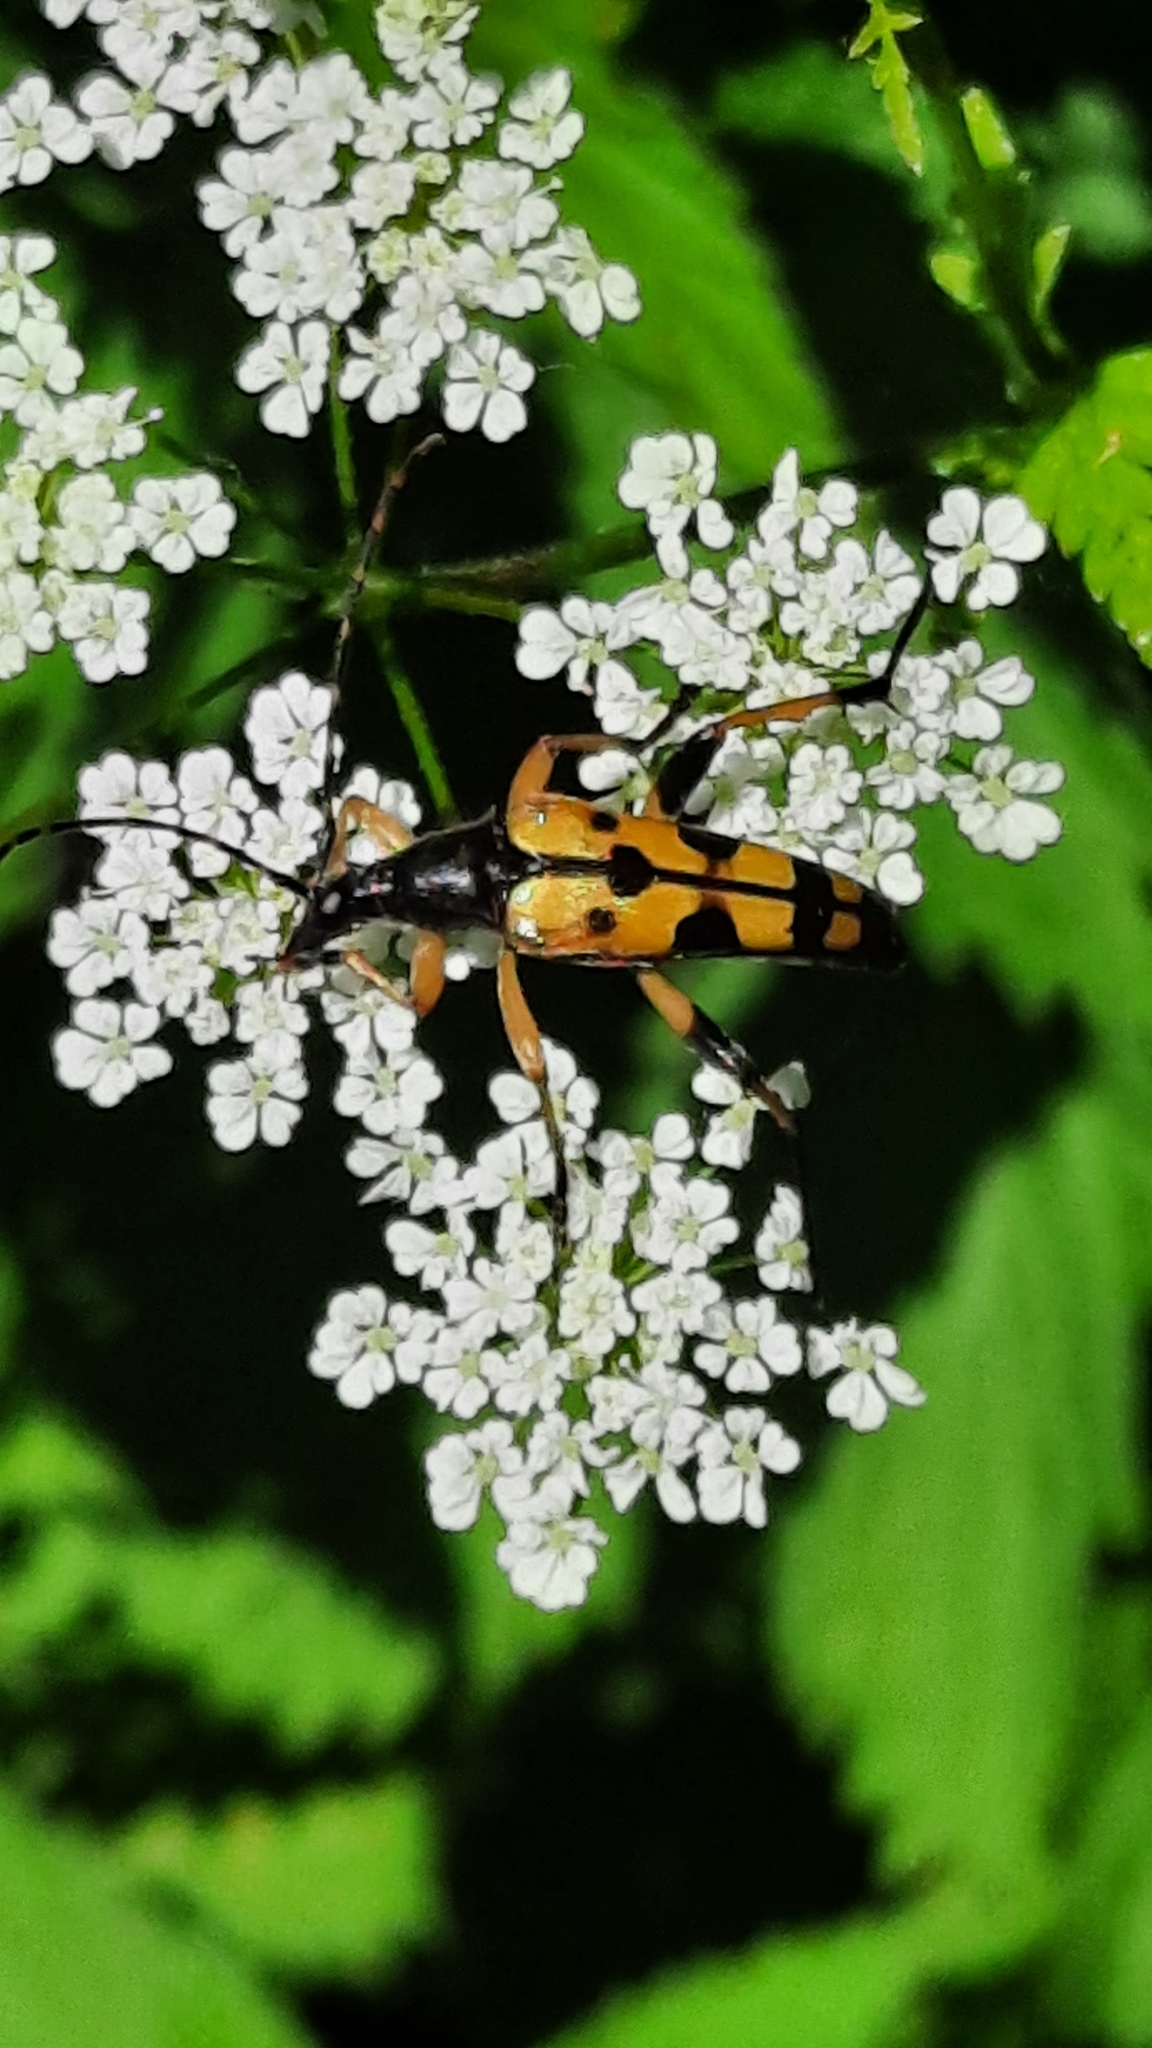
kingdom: Animalia
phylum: Arthropoda
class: Insecta
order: Coleoptera
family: Cerambycidae
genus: Rutpela
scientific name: Rutpela maculata
